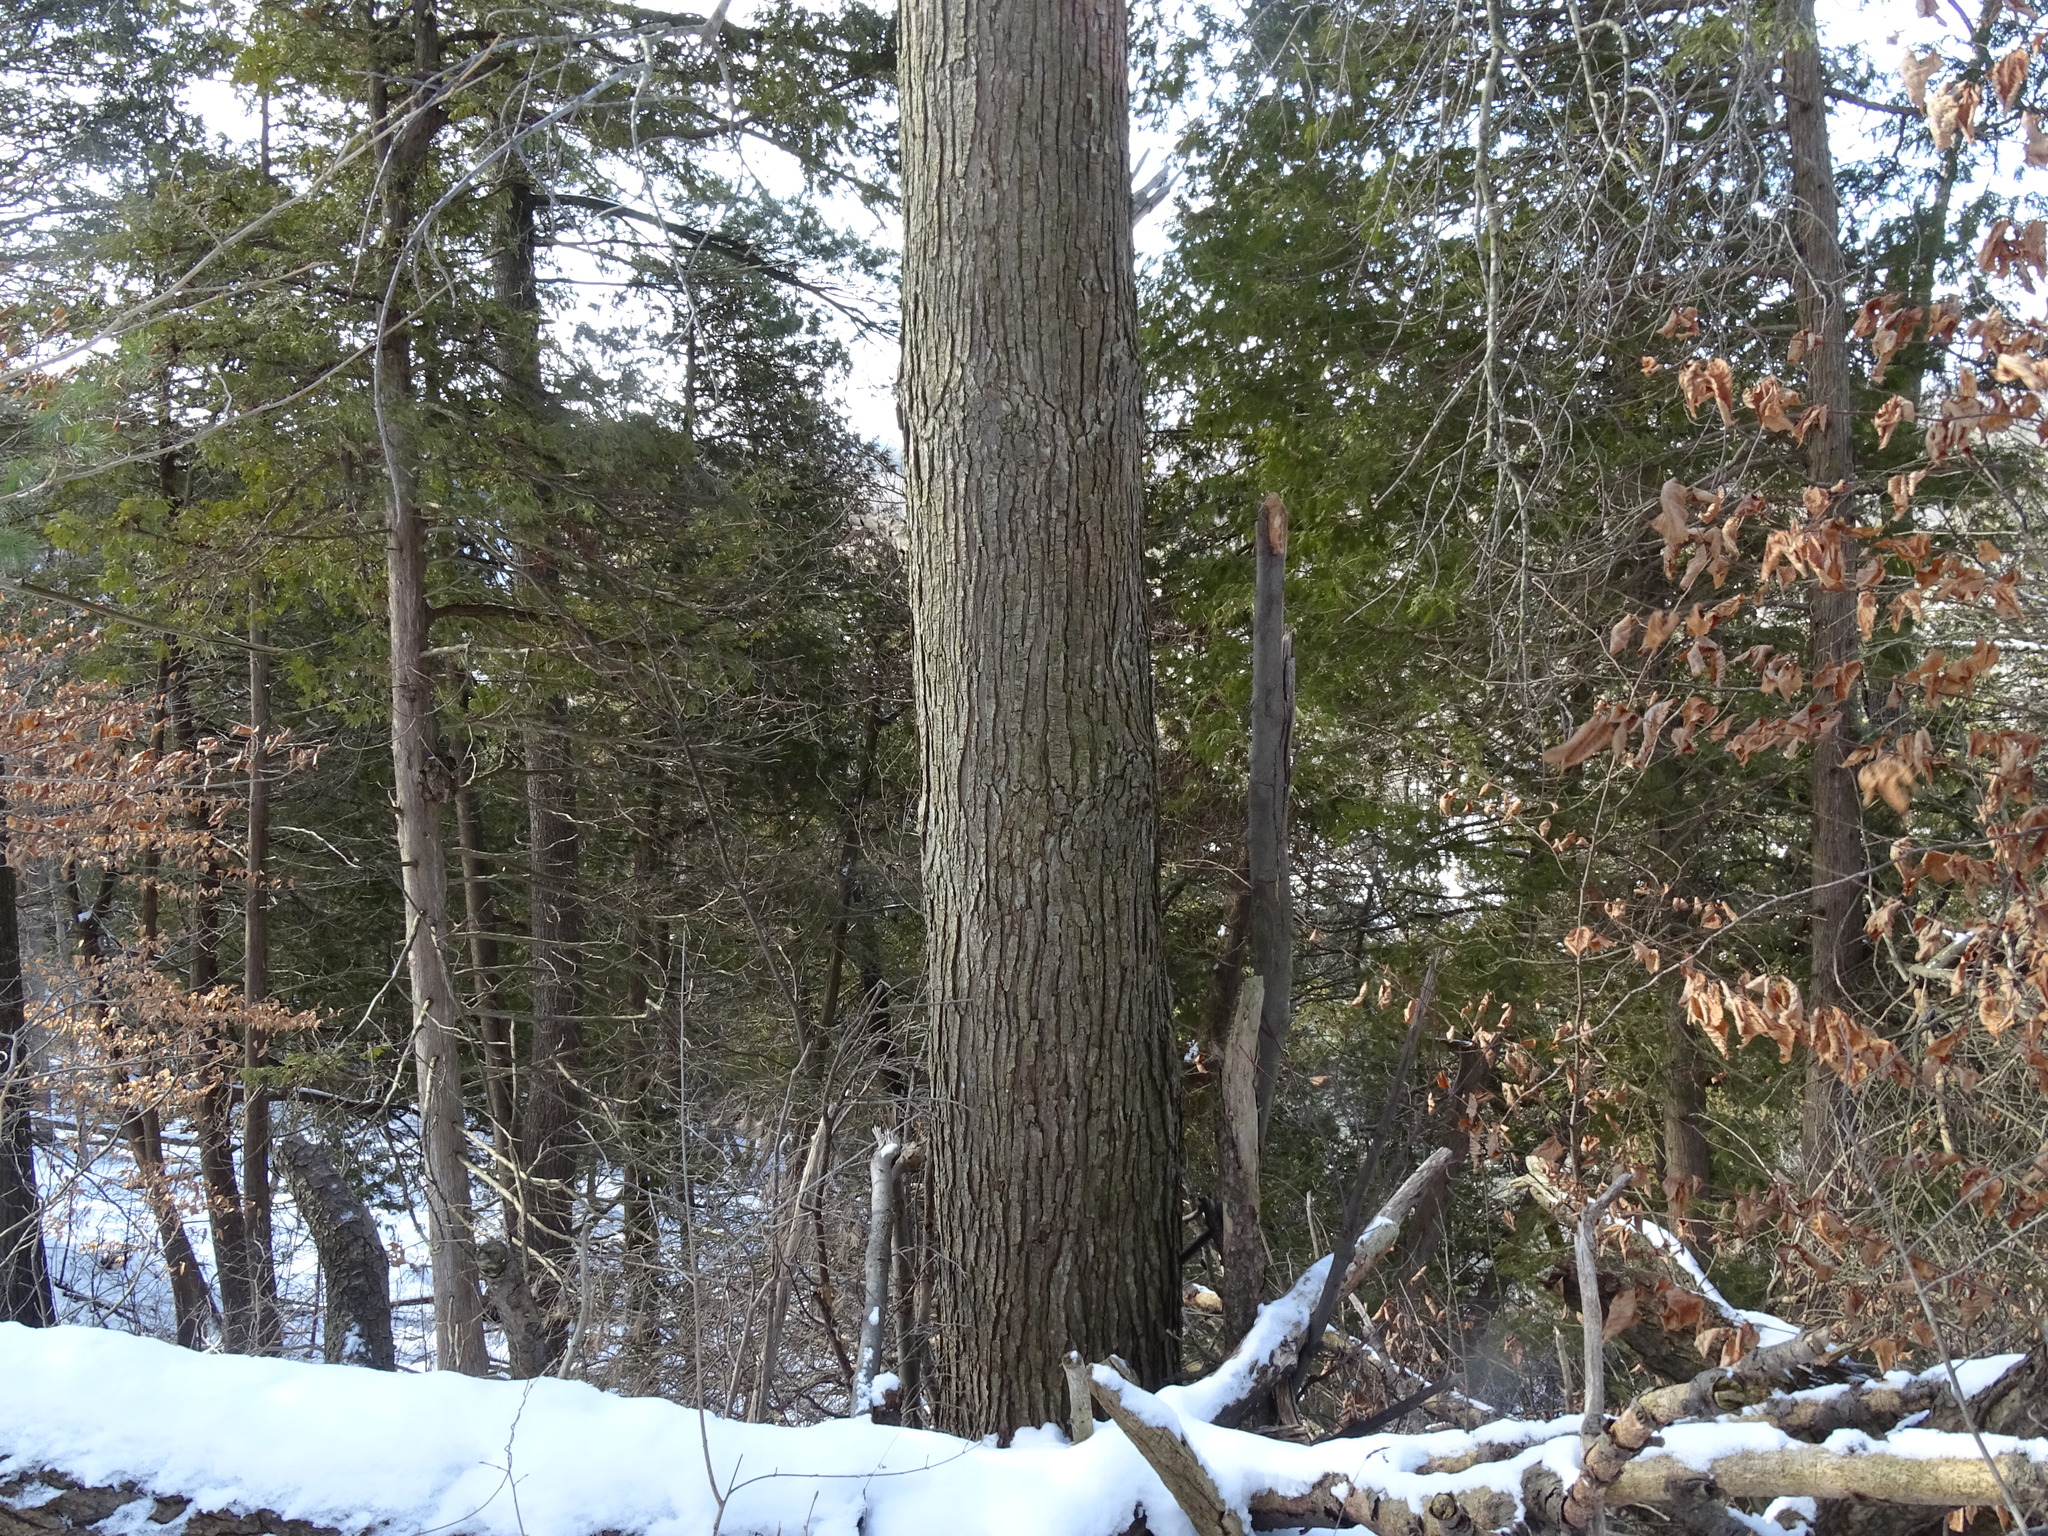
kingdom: Plantae
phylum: Tracheophyta
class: Magnoliopsida
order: Sapindales
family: Sapindaceae
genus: Acer
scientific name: Acer rubrum
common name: Red maple
